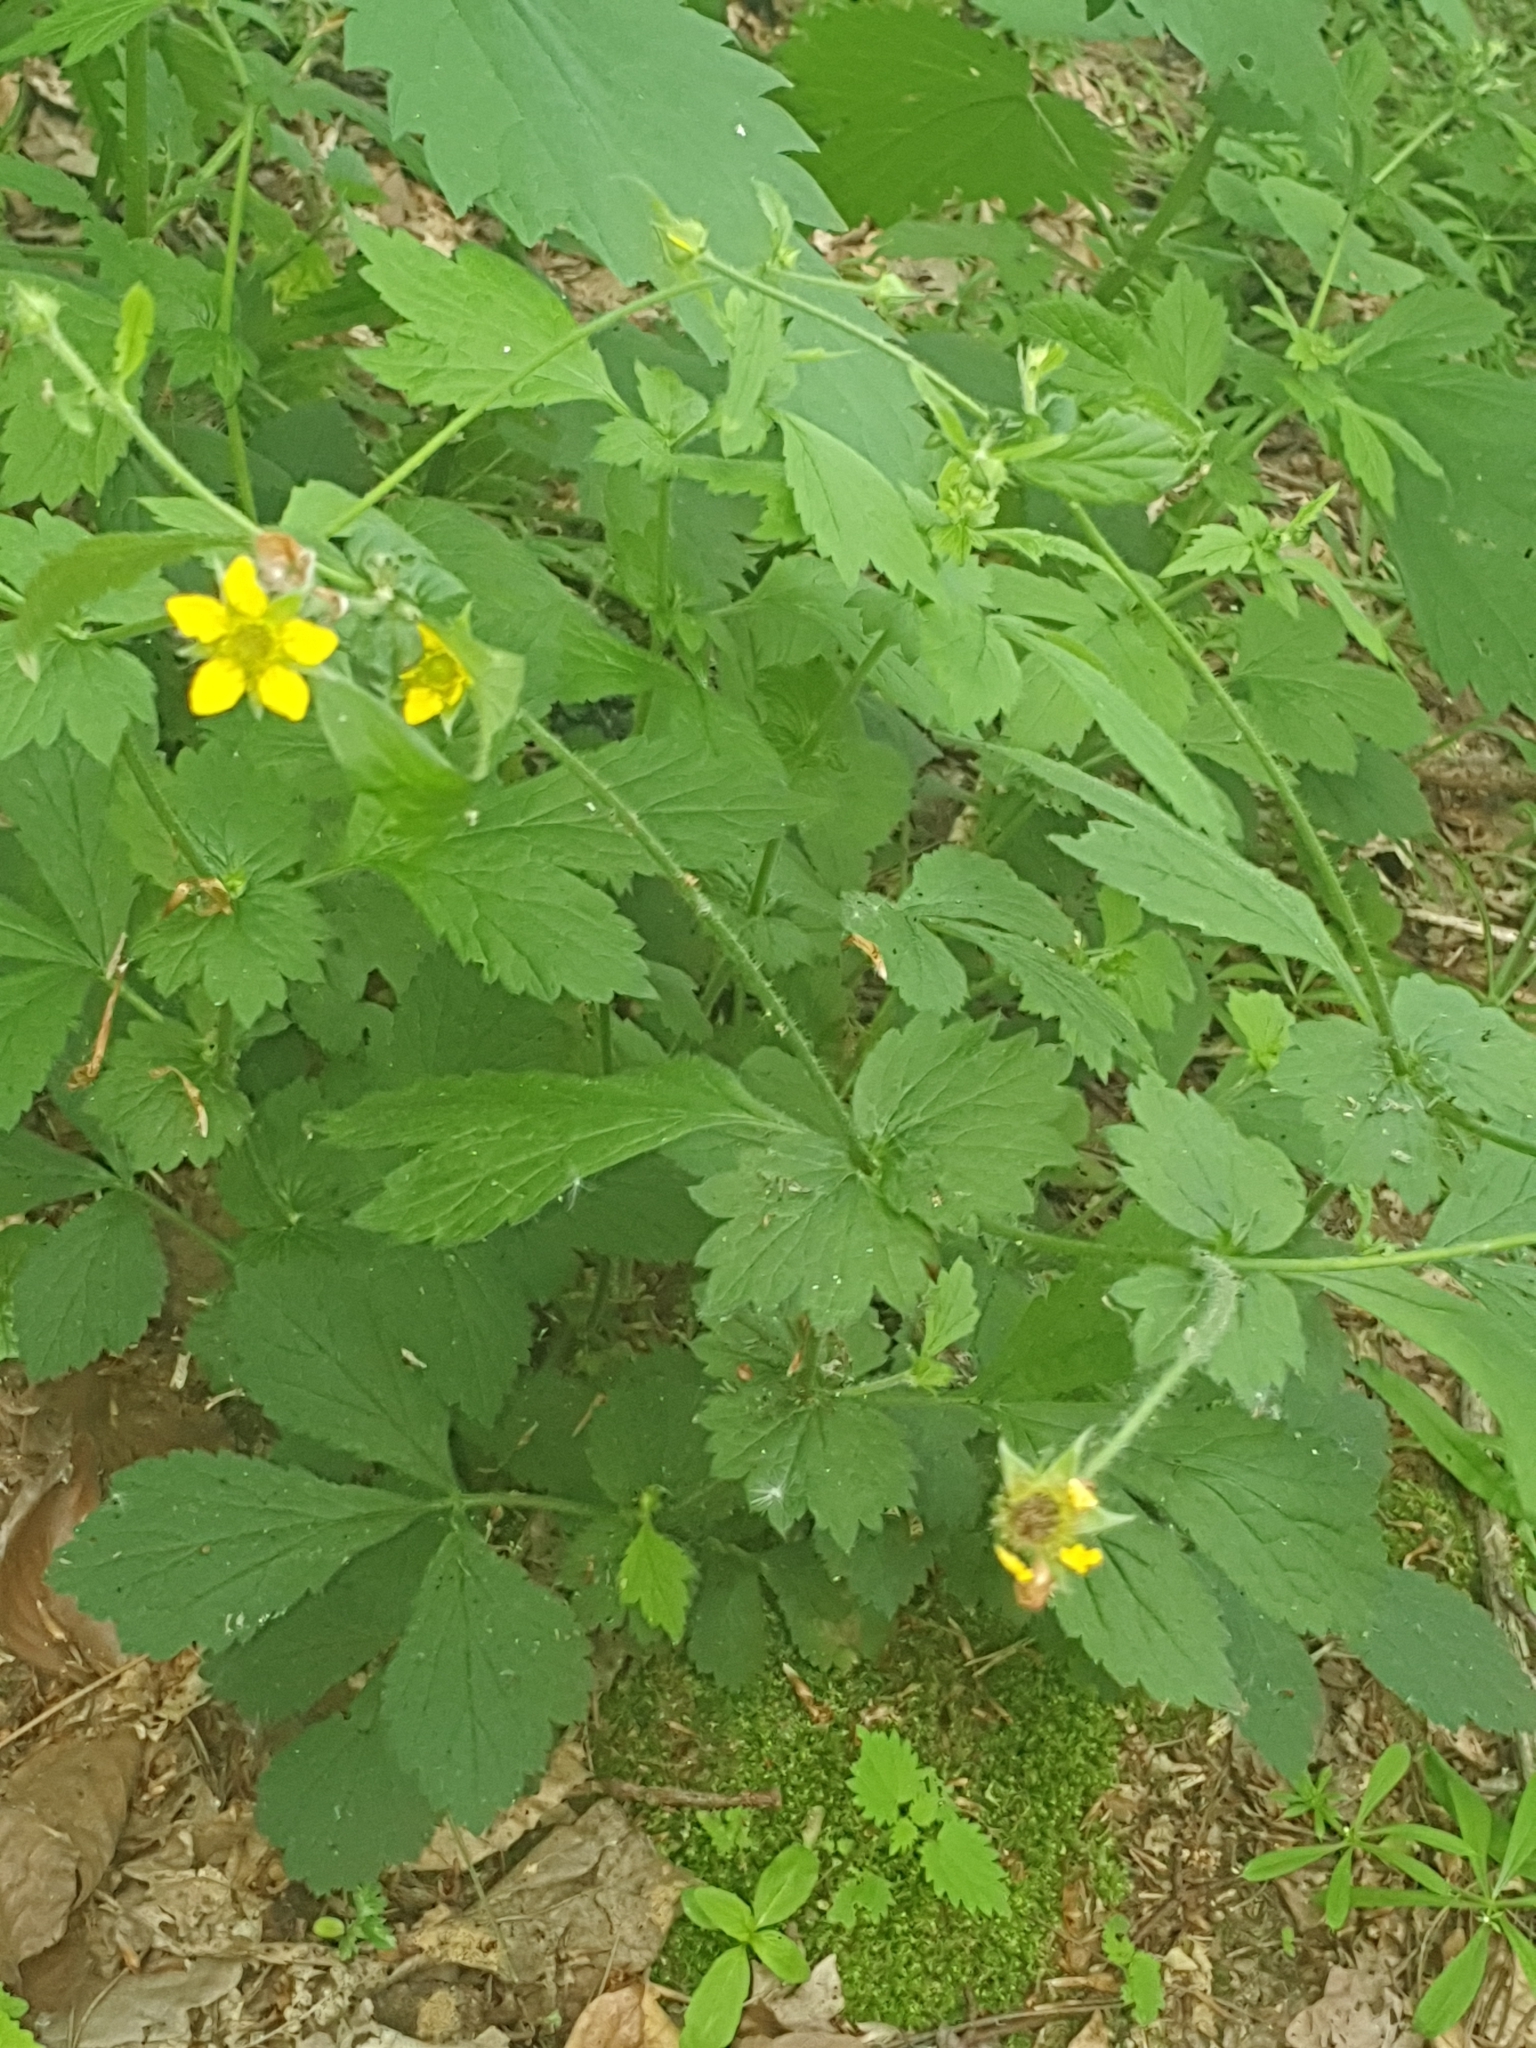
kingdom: Plantae
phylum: Tracheophyta
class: Magnoliopsida
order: Rosales
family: Rosaceae
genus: Geum
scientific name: Geum urbanum
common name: Wood avens
